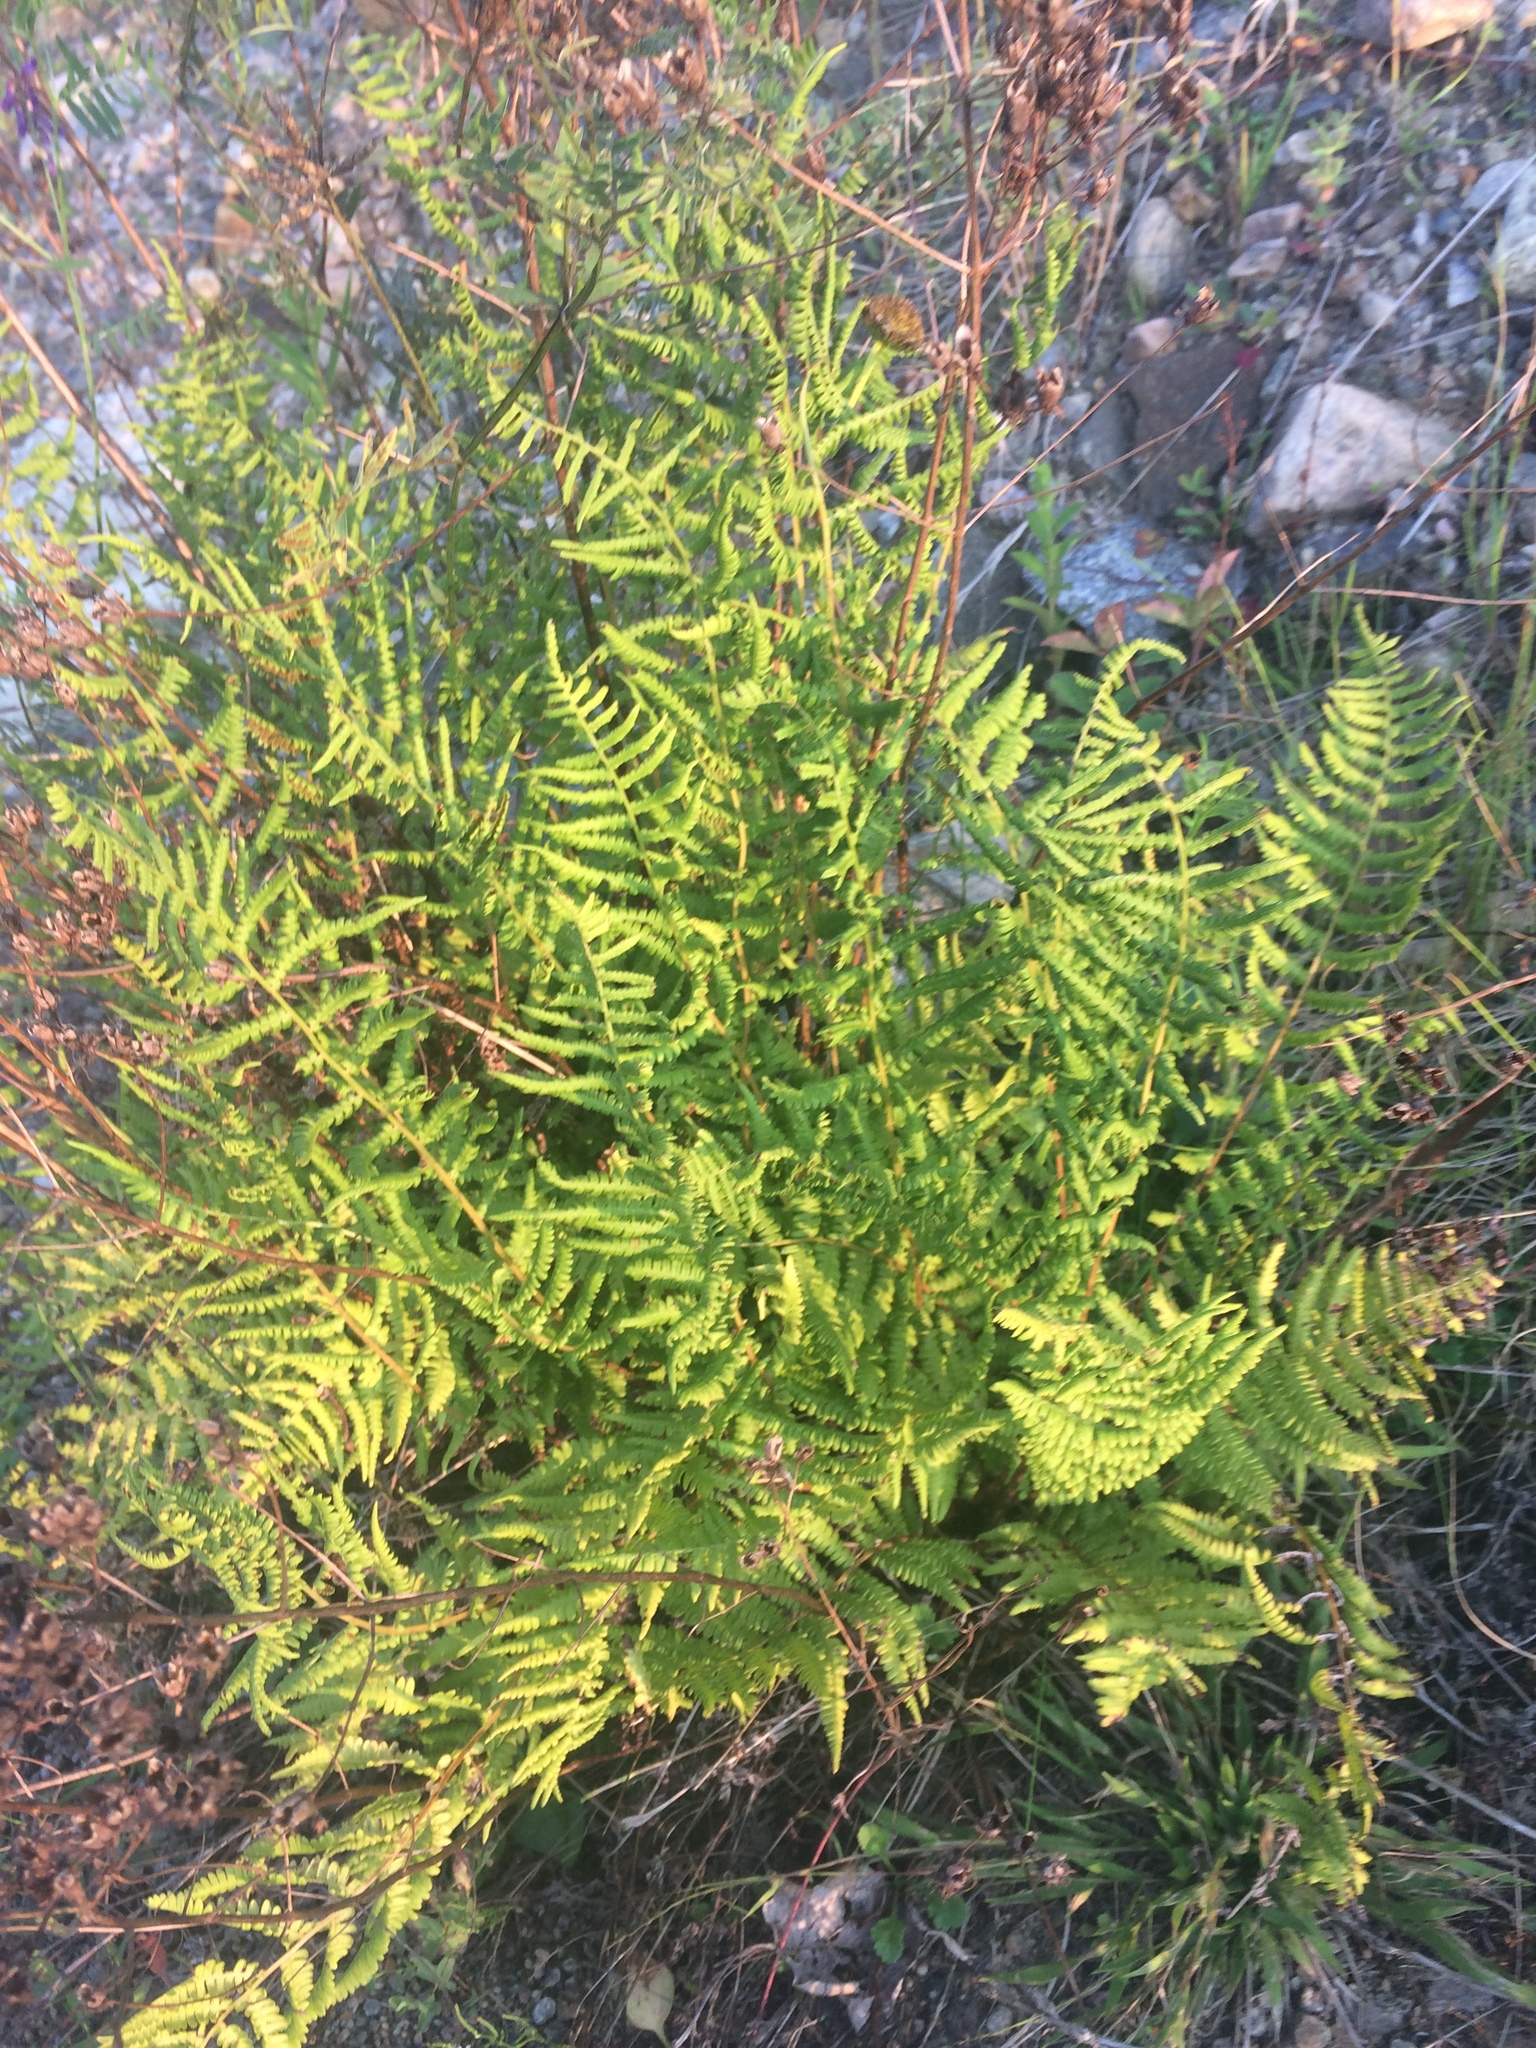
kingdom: Plantae
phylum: Tracheophyta
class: Polypodiopsida
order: Polypodiales
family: Athyriaceae
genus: Athyrium
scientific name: Athyrium angustum
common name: Northern lady fern
